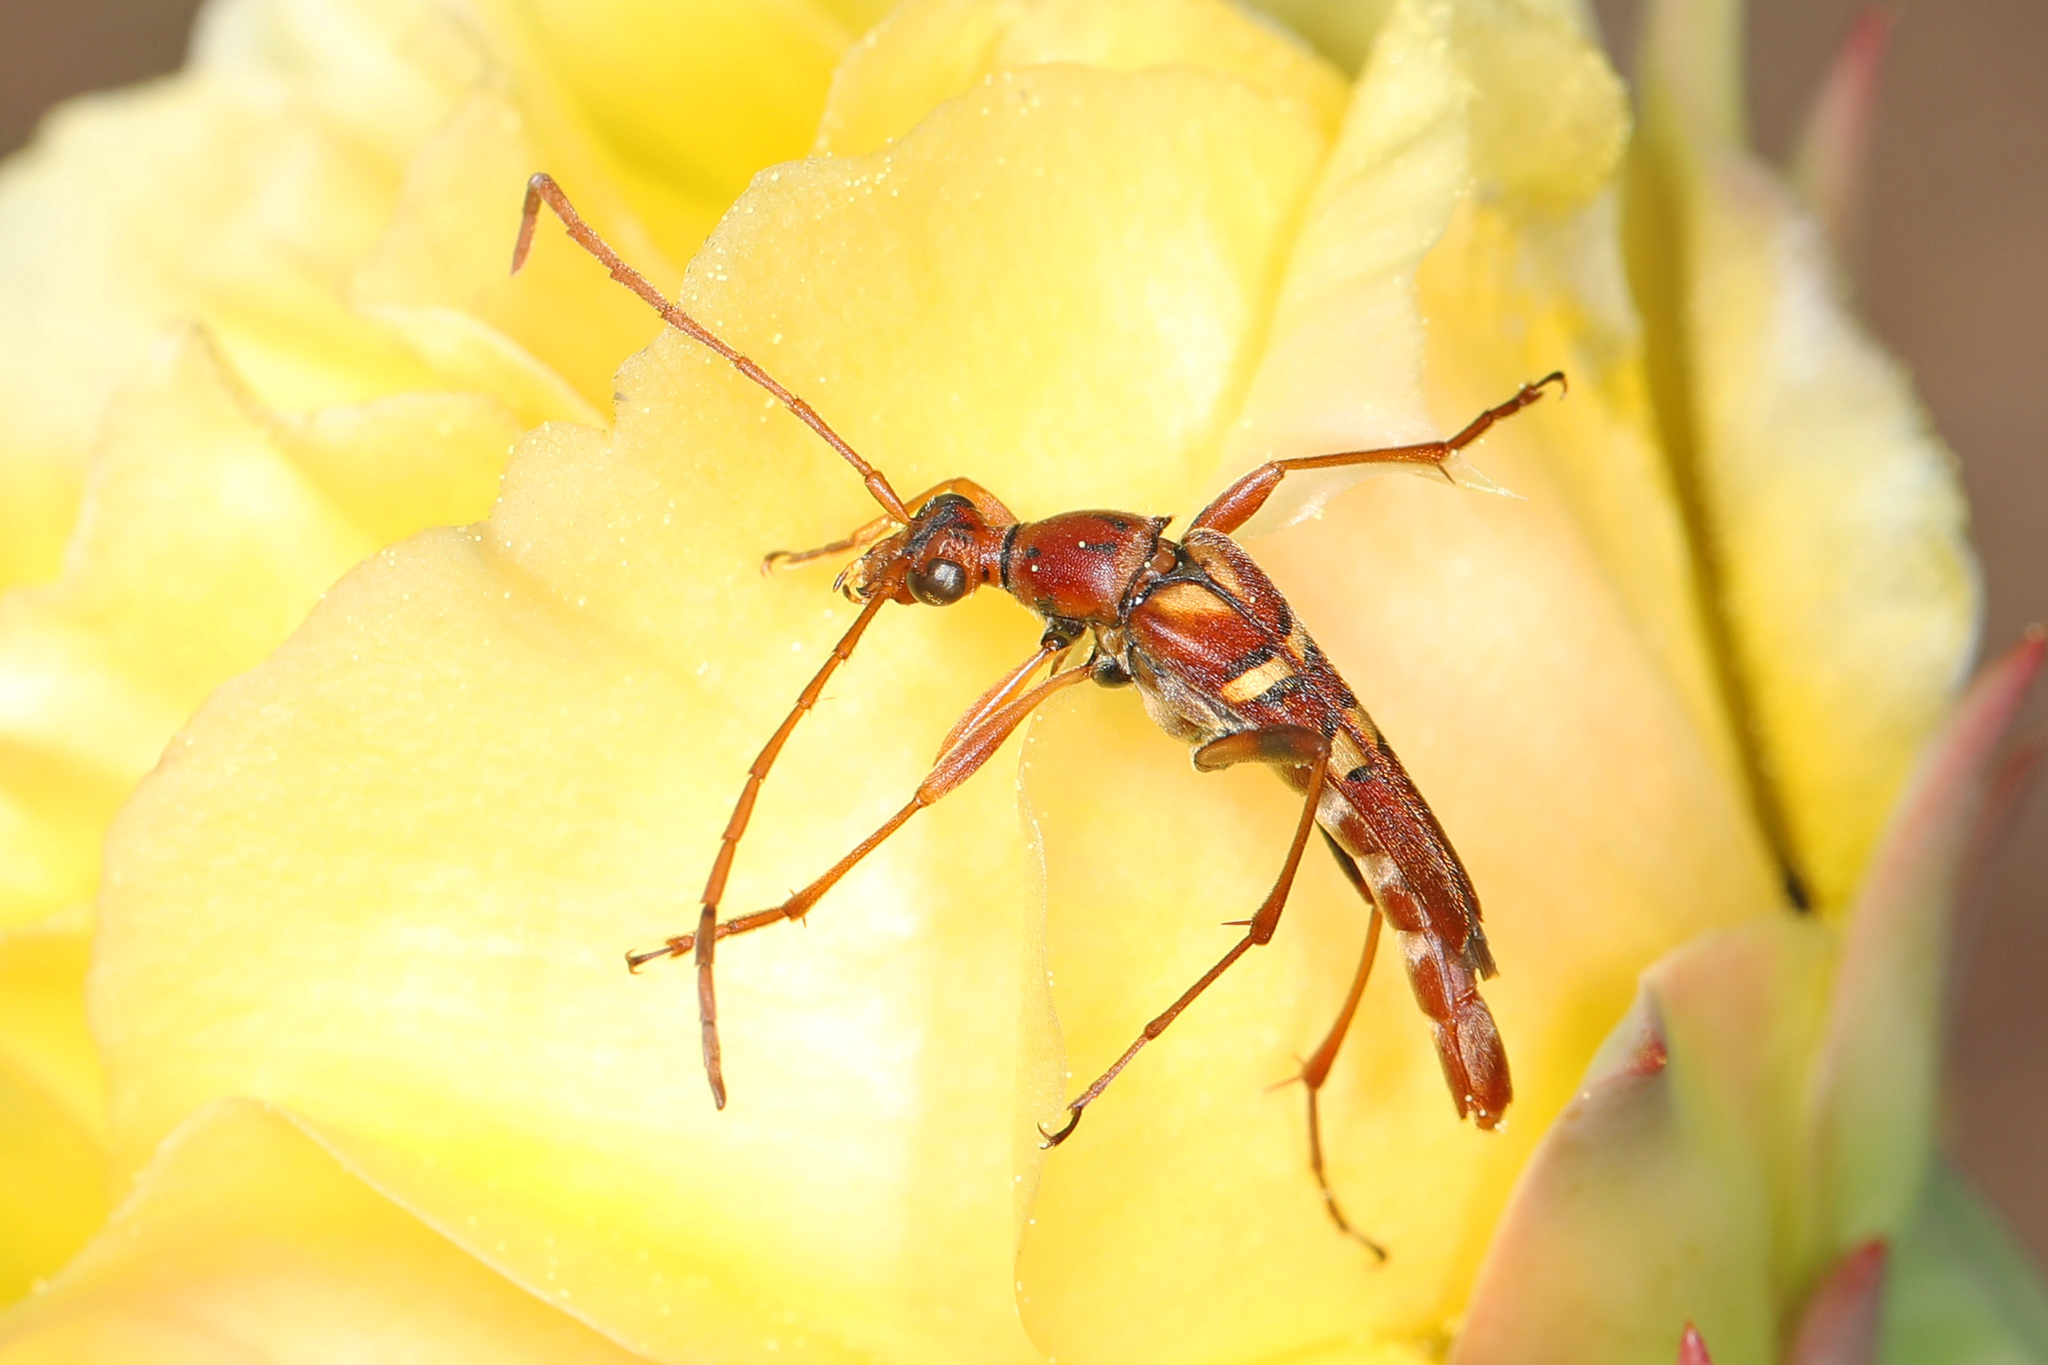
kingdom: Animalia
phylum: Arthropoda
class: Insecta
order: Coleoptera
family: Cerambycidae
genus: Strangalia
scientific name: Strangalia strigosa
